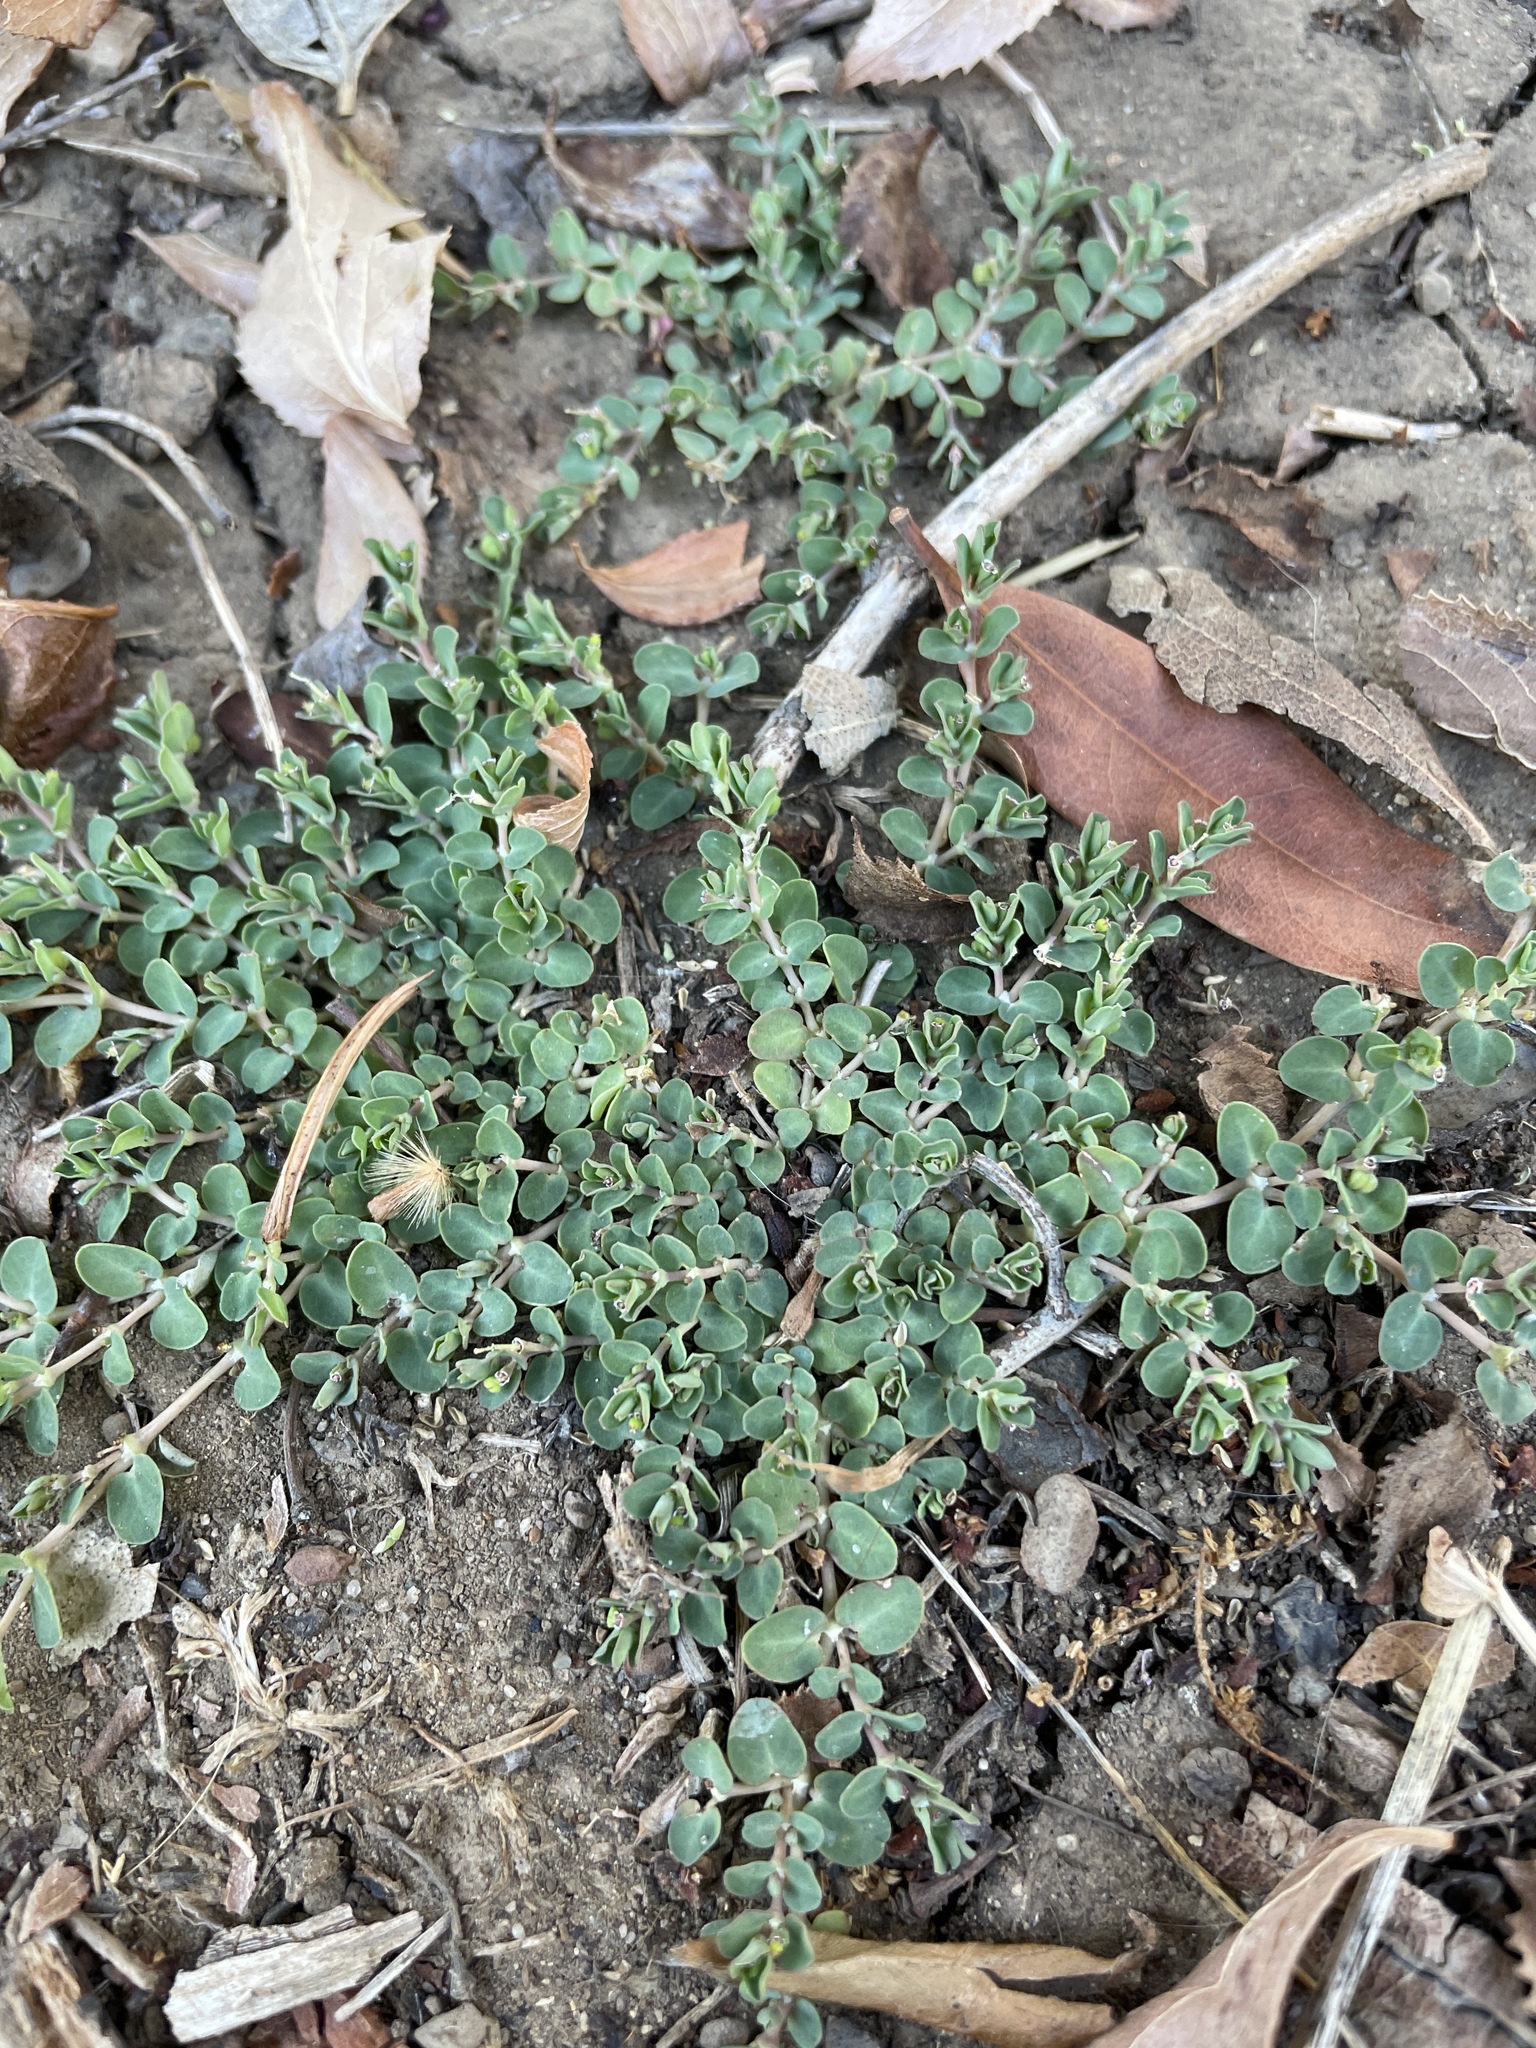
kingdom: Plantae
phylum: Tracheophyta
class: Magnoliopsida
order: Malpighiales
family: Euphorbiaceae
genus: Euphorbia
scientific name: Euphorbia serpens
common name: Matted sandmat
